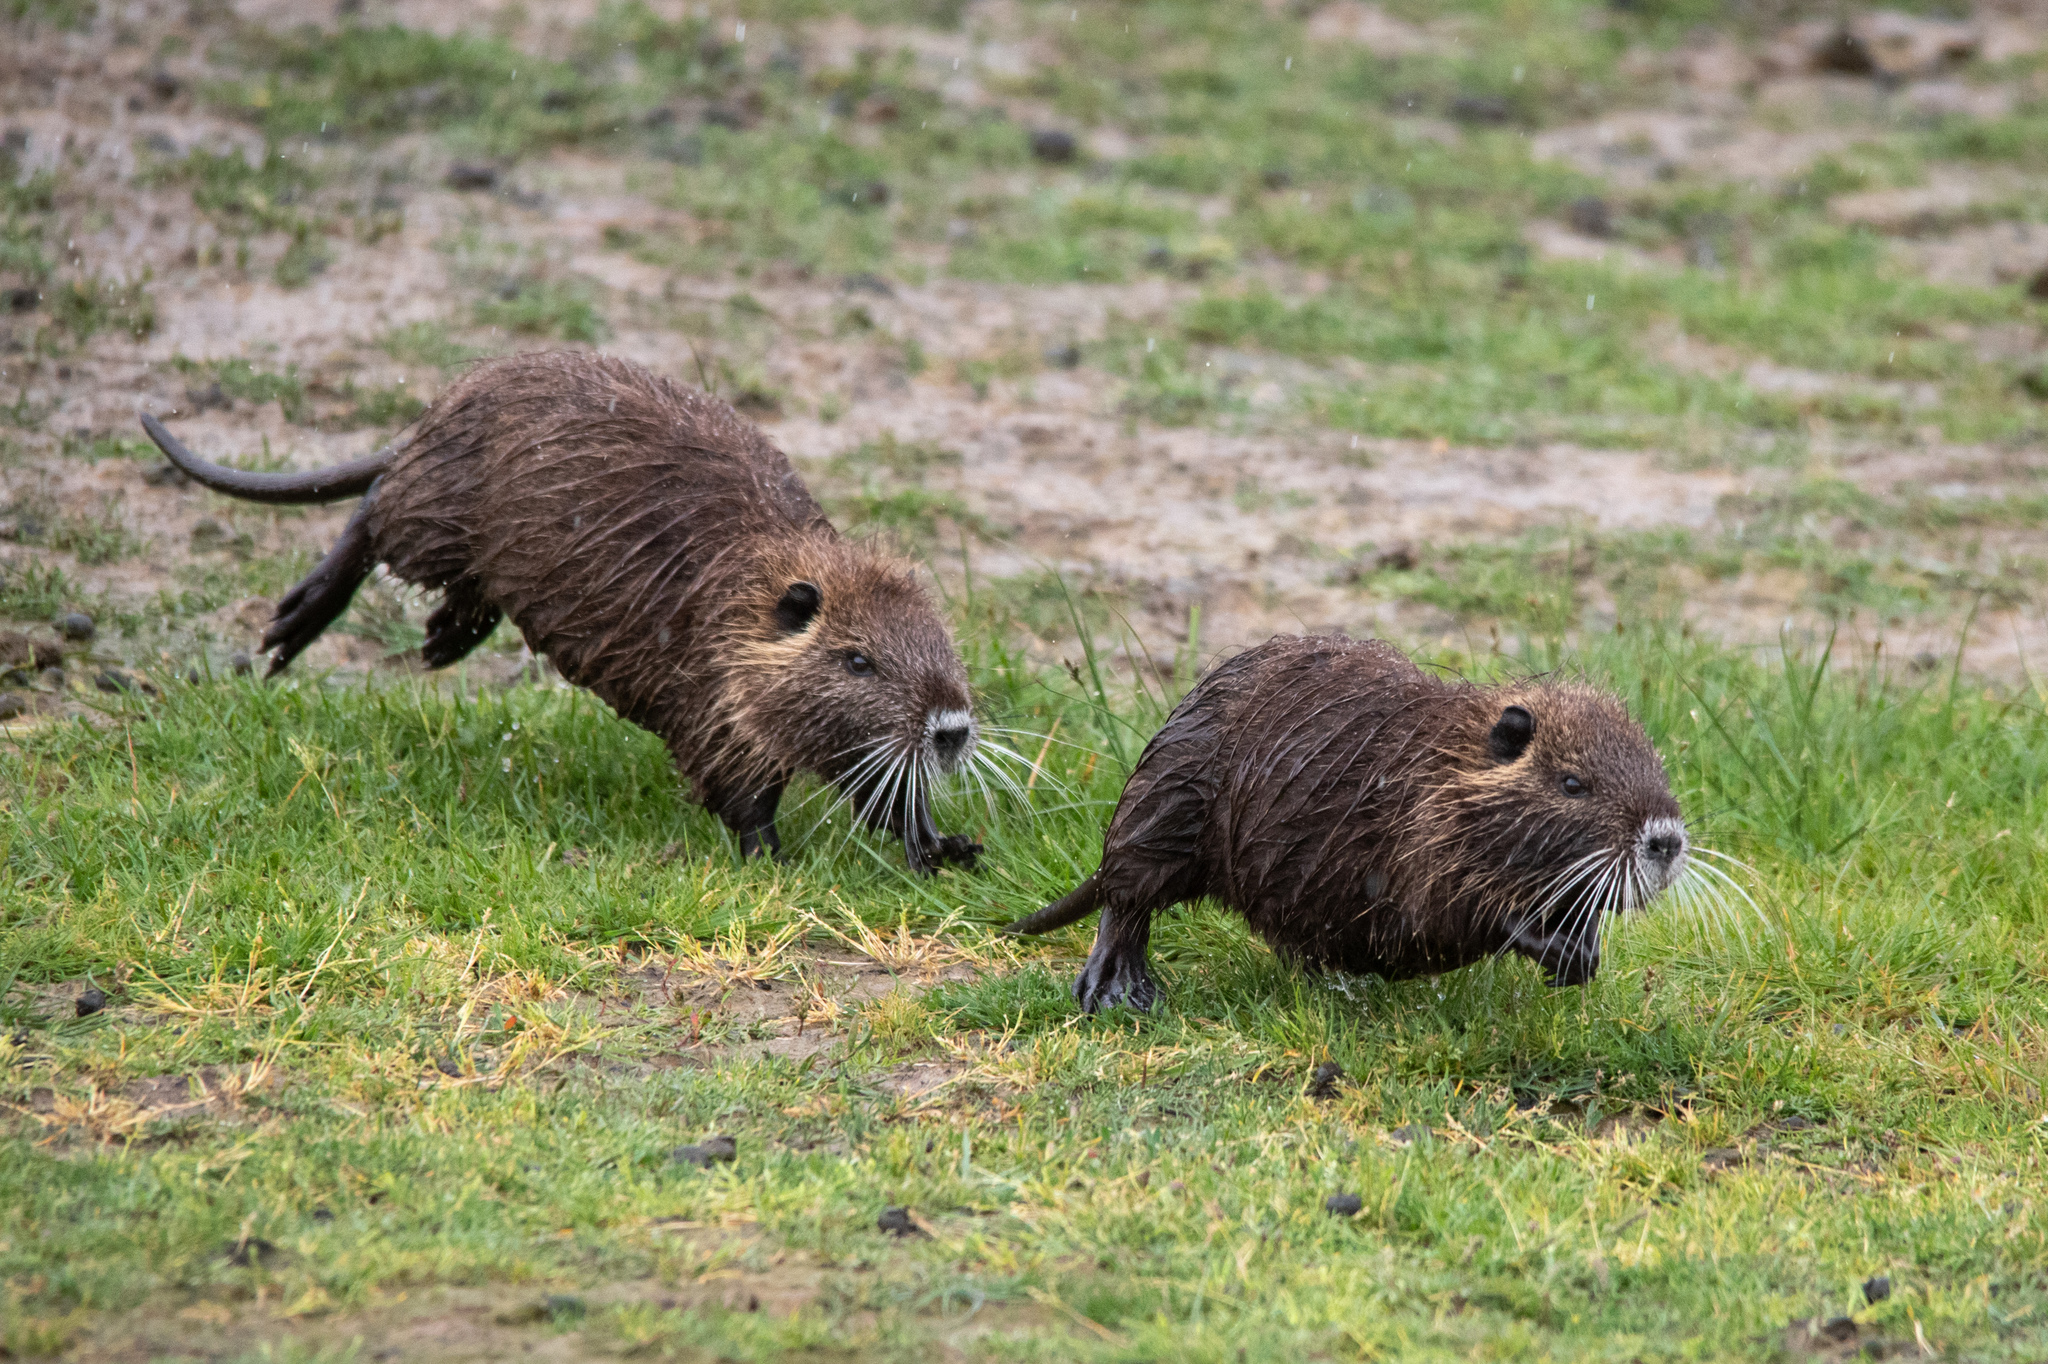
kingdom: Animalia
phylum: Chordata
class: Mammalia
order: Rodentia
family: Myocastoridae
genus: Myocastor
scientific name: Myocastor coypus
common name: Coypu
